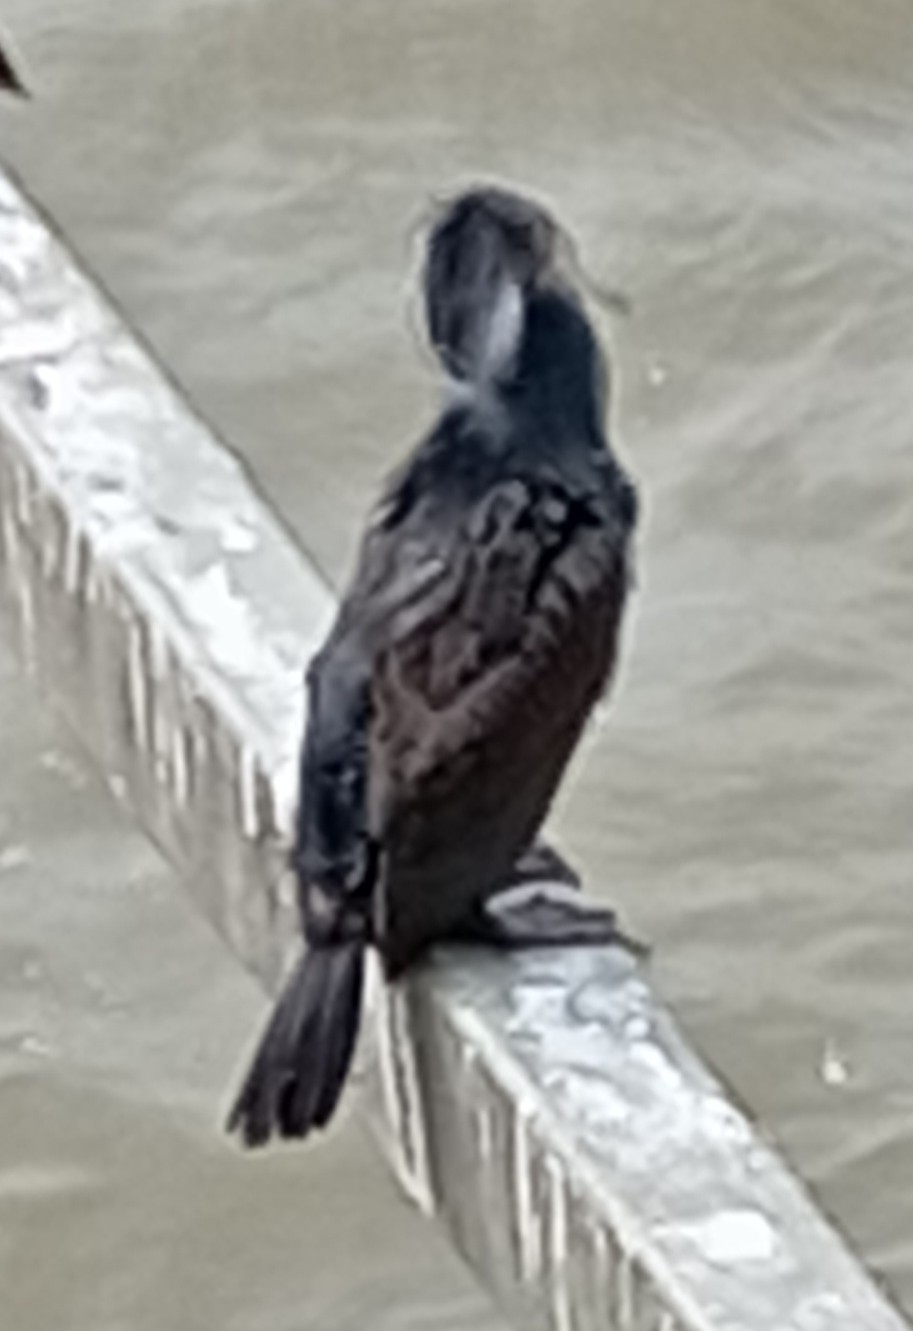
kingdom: Animalia
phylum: Chordata
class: Aves
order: Suliformes
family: Phalacrocoracidae
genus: Phalacrocorax
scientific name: Phalacrocorax carbo
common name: Great cormorant
